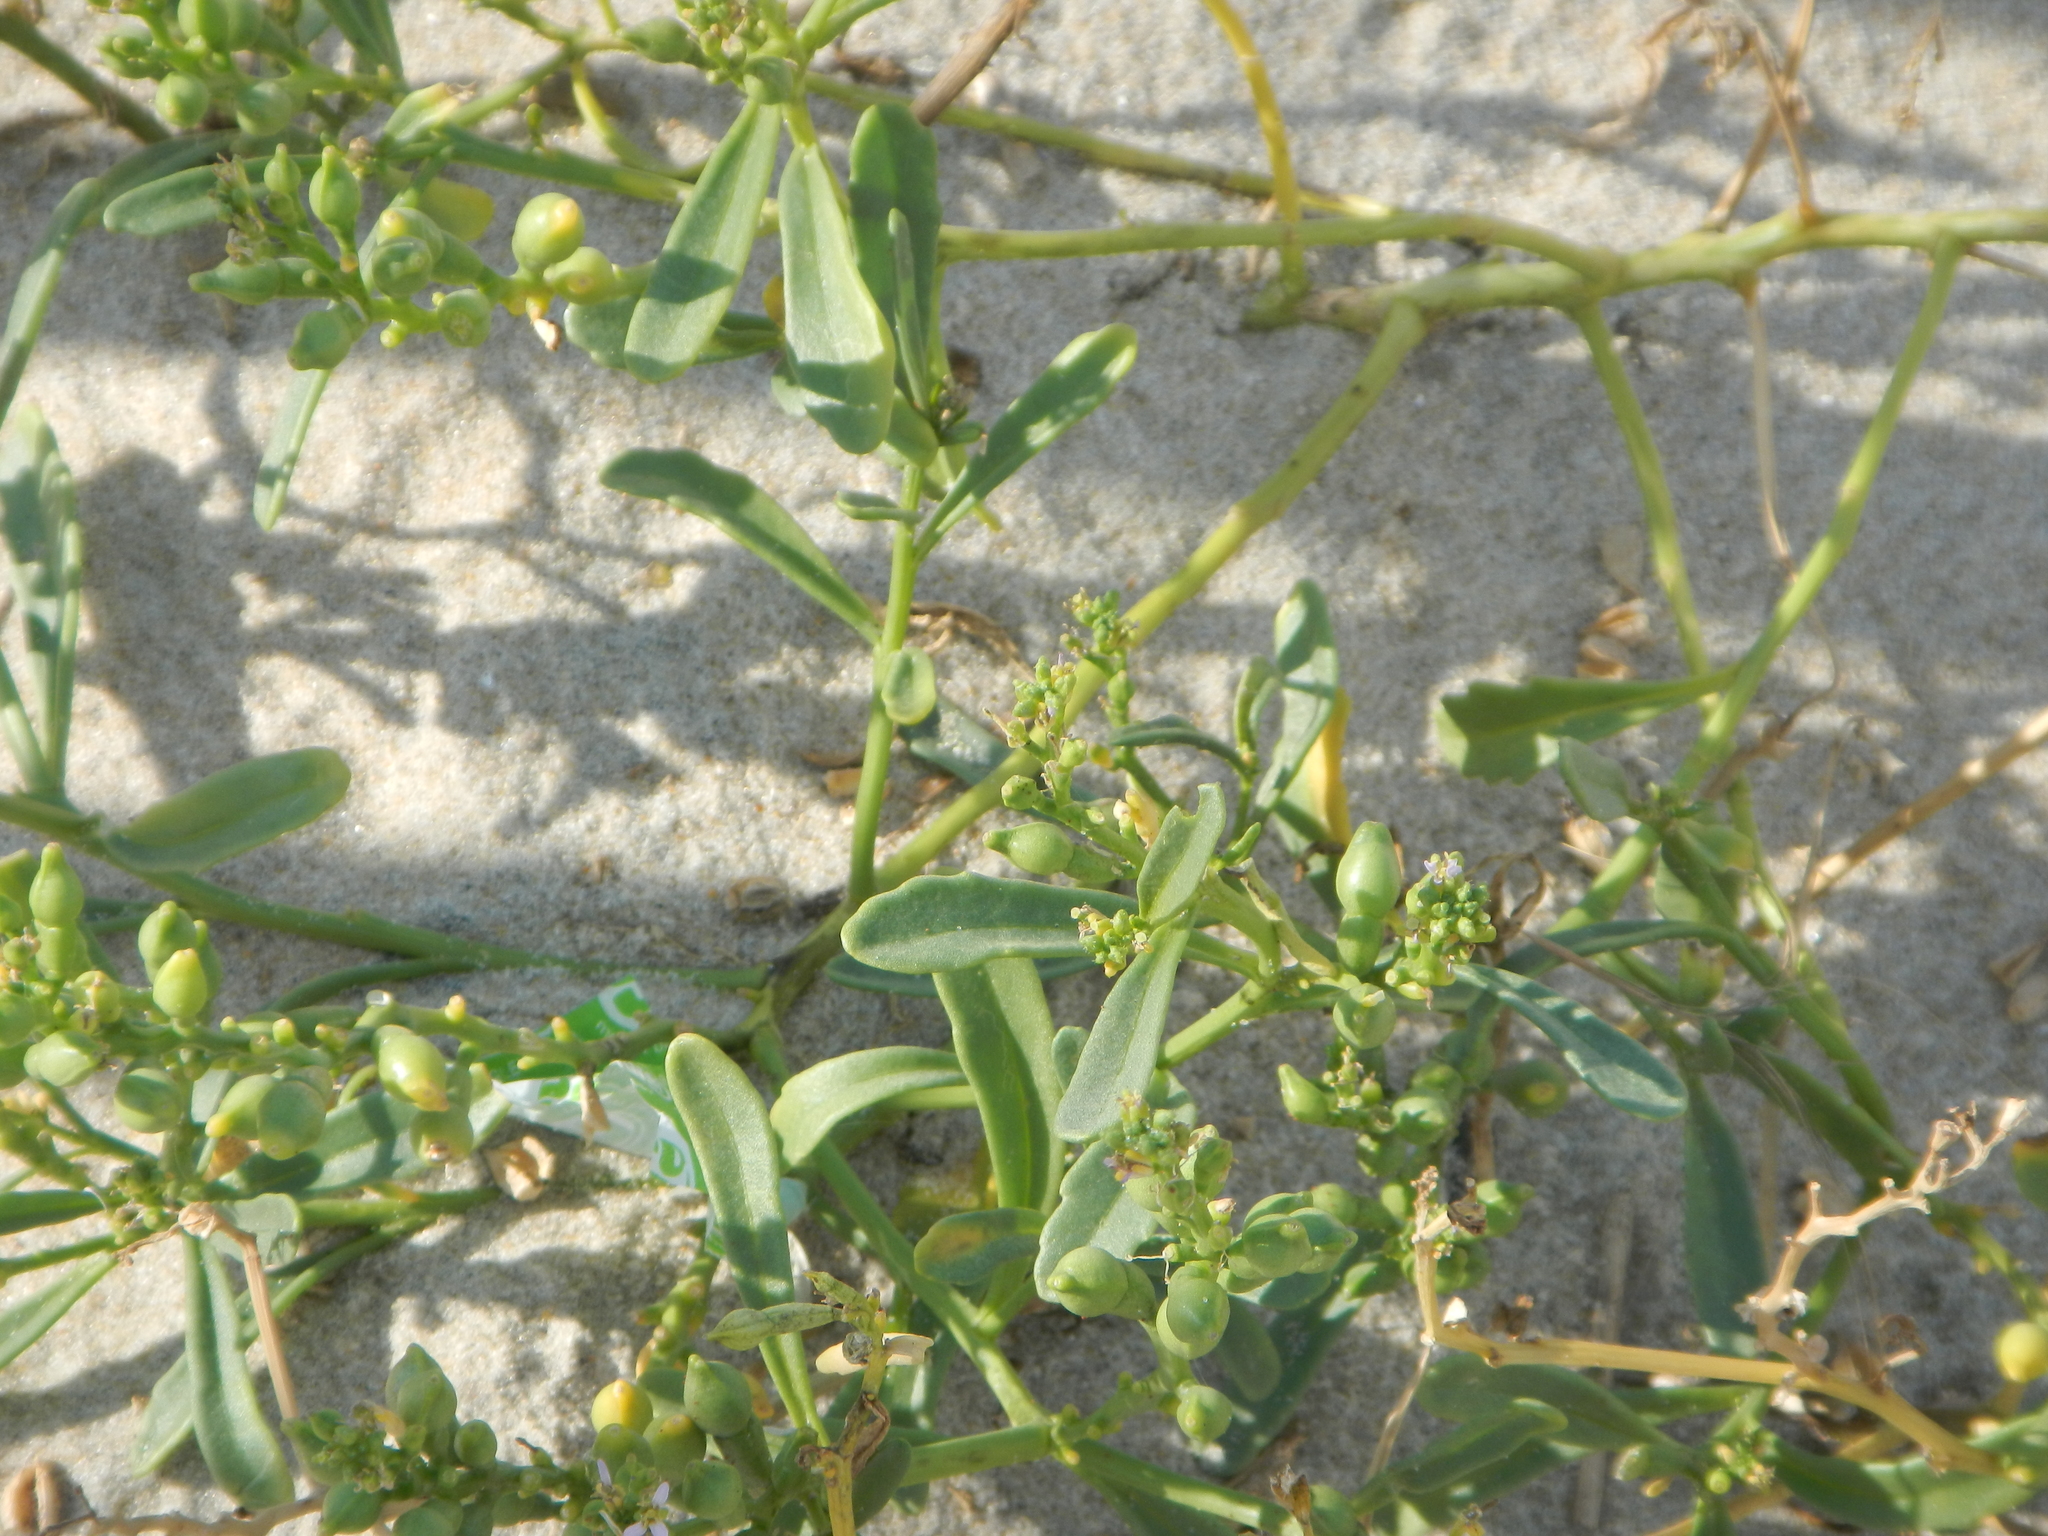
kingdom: Plantae
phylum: Tracheophyta
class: Magnoliopsida
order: Brassicales
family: Brassicaceae
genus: Cakile
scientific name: Cakile edentula
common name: American sea rocket
